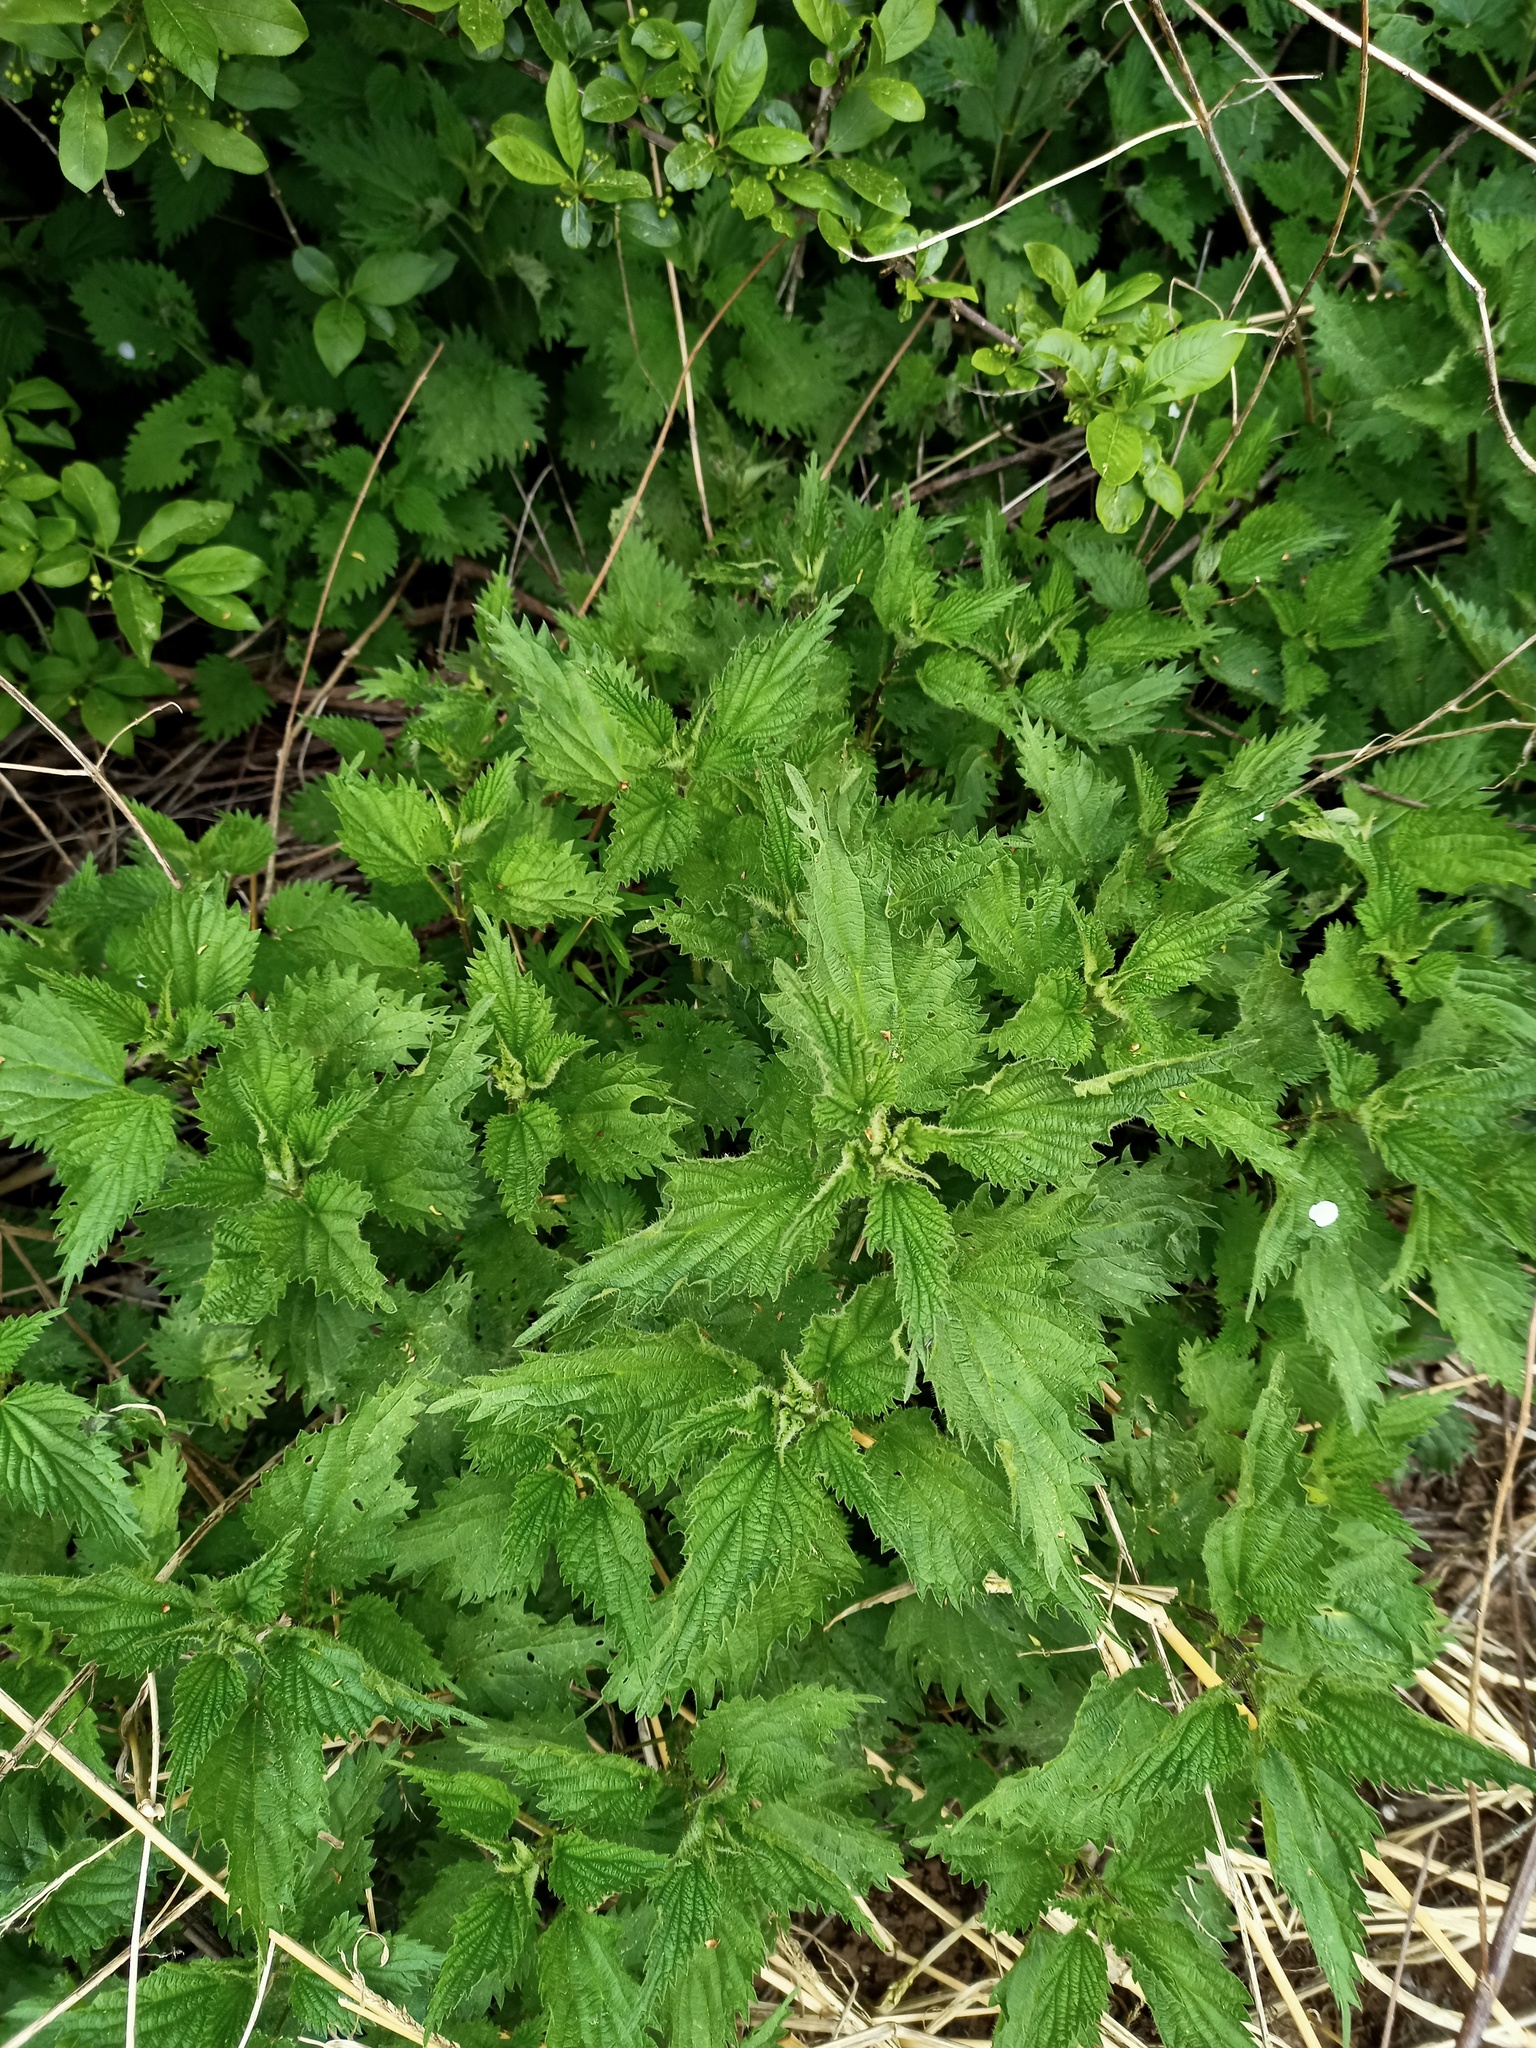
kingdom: Plantae
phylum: Tracheophyta
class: Magnoliopsida
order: Rosales
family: Urticaceae
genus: Urtica
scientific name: Urtica dioica
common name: Common nettle
